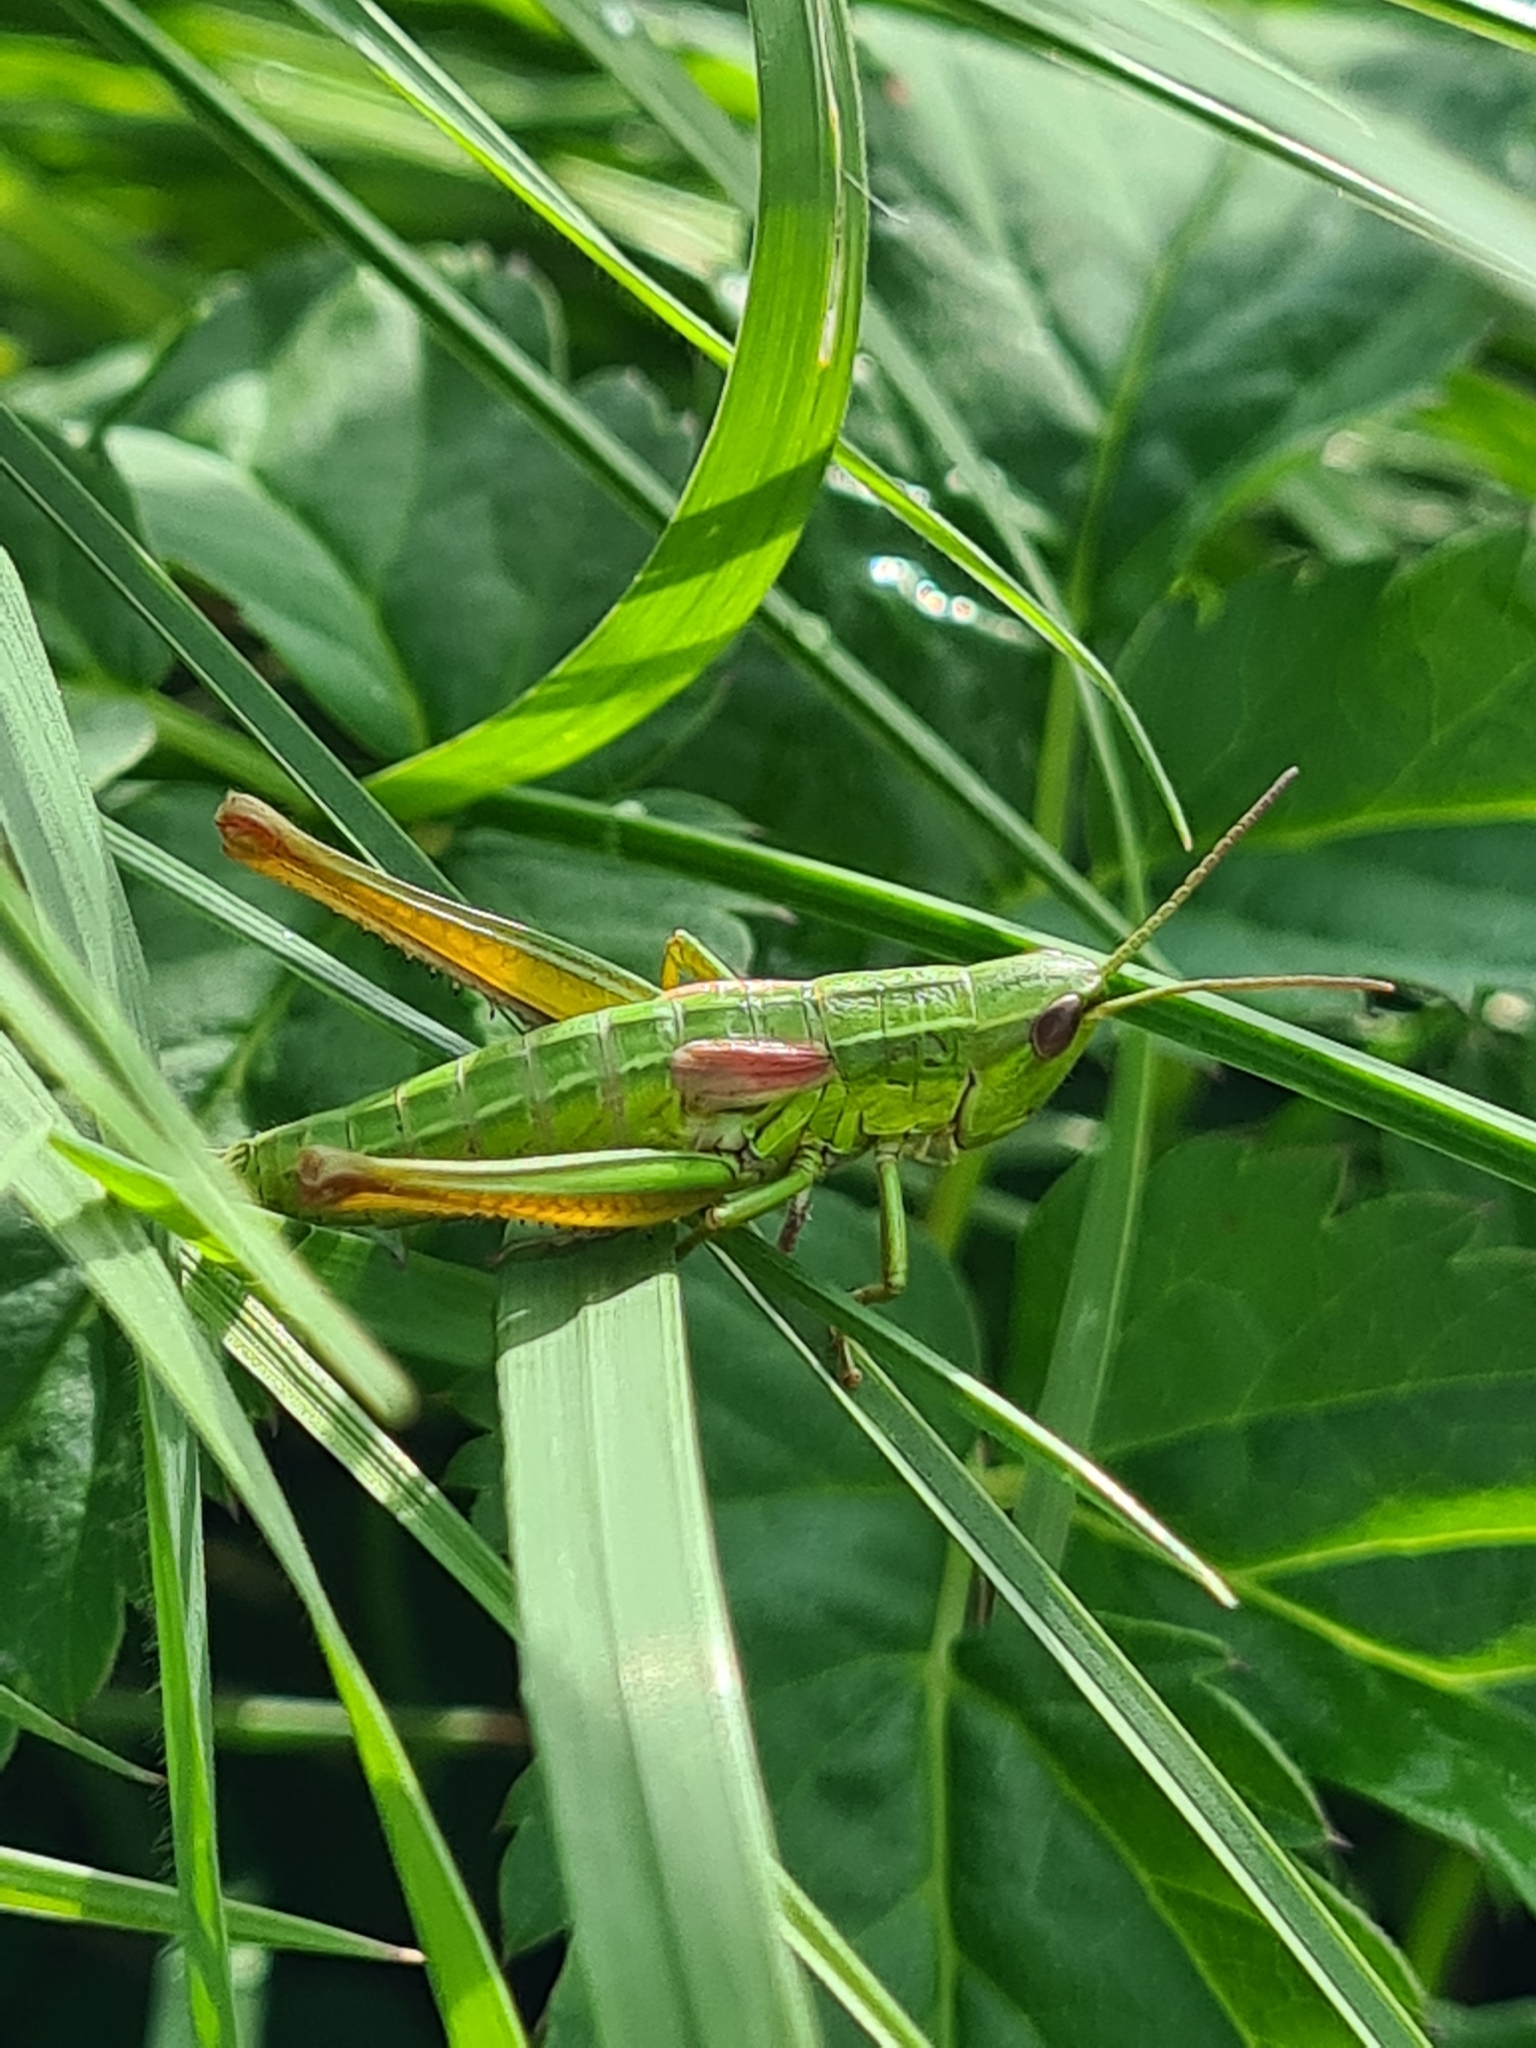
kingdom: Animalia
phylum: Arthropoda
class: Insecta
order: Orthoptera
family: Acrididae
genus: Euthystira
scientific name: Euthystira brachyptera
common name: Small gold grasshopper
